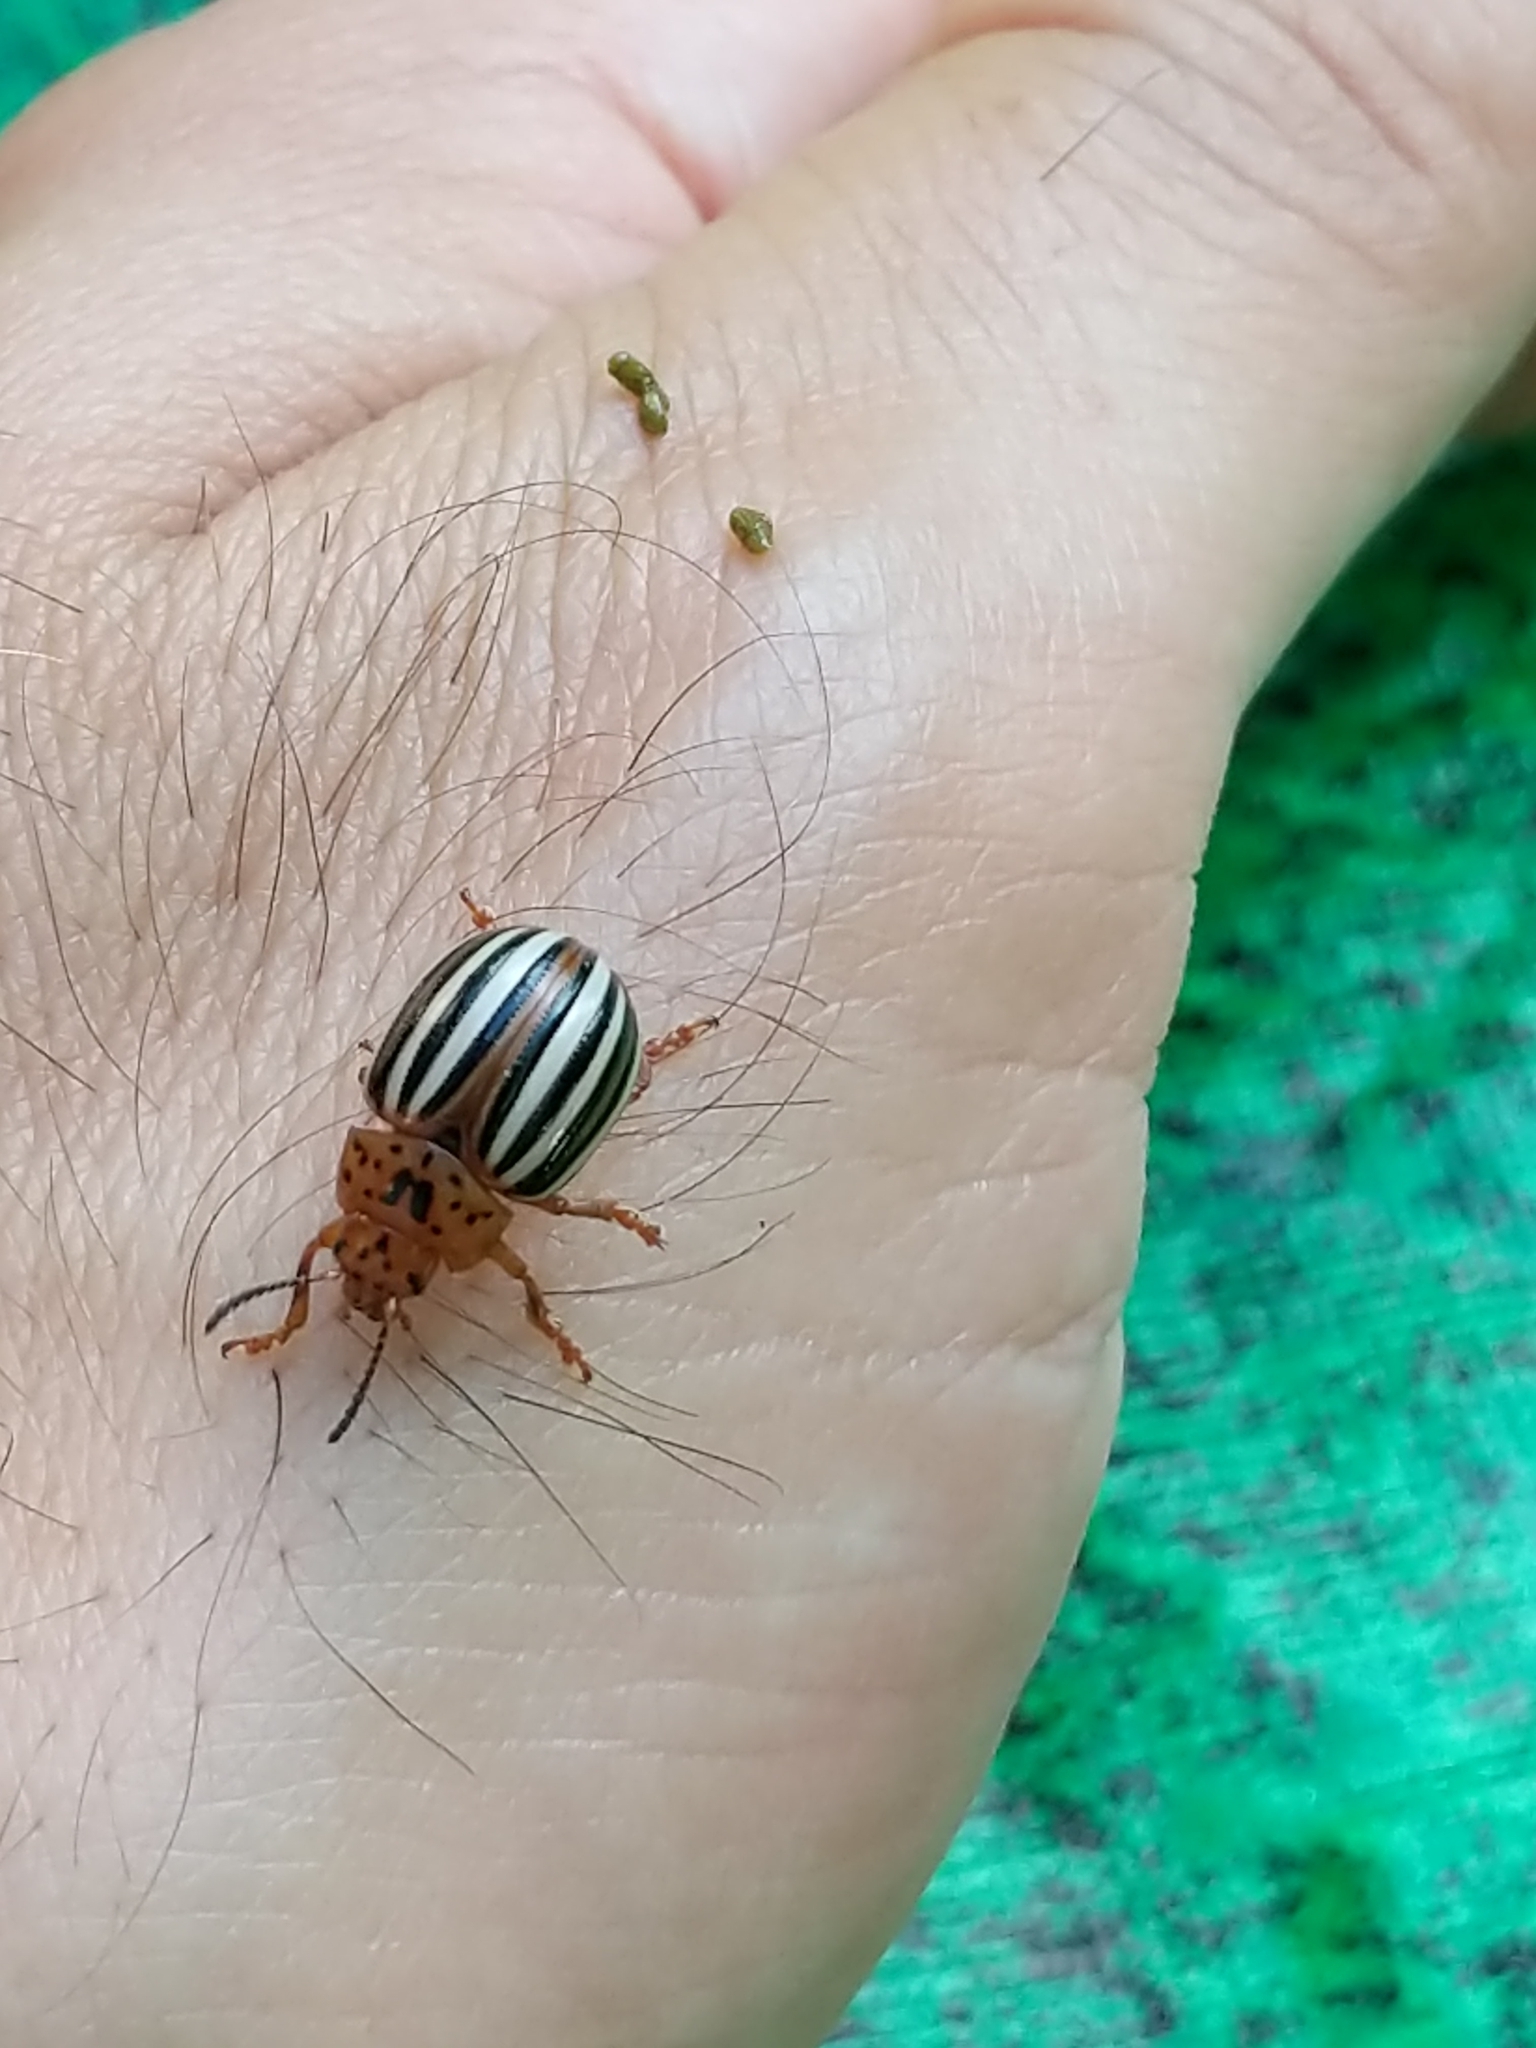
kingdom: Animalia
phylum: Arthropoda
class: Insecta
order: Coleoptera
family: Chrysomelidae
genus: Leptinotarsa
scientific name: Leptinotarsa juncta
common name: False potato beetle
